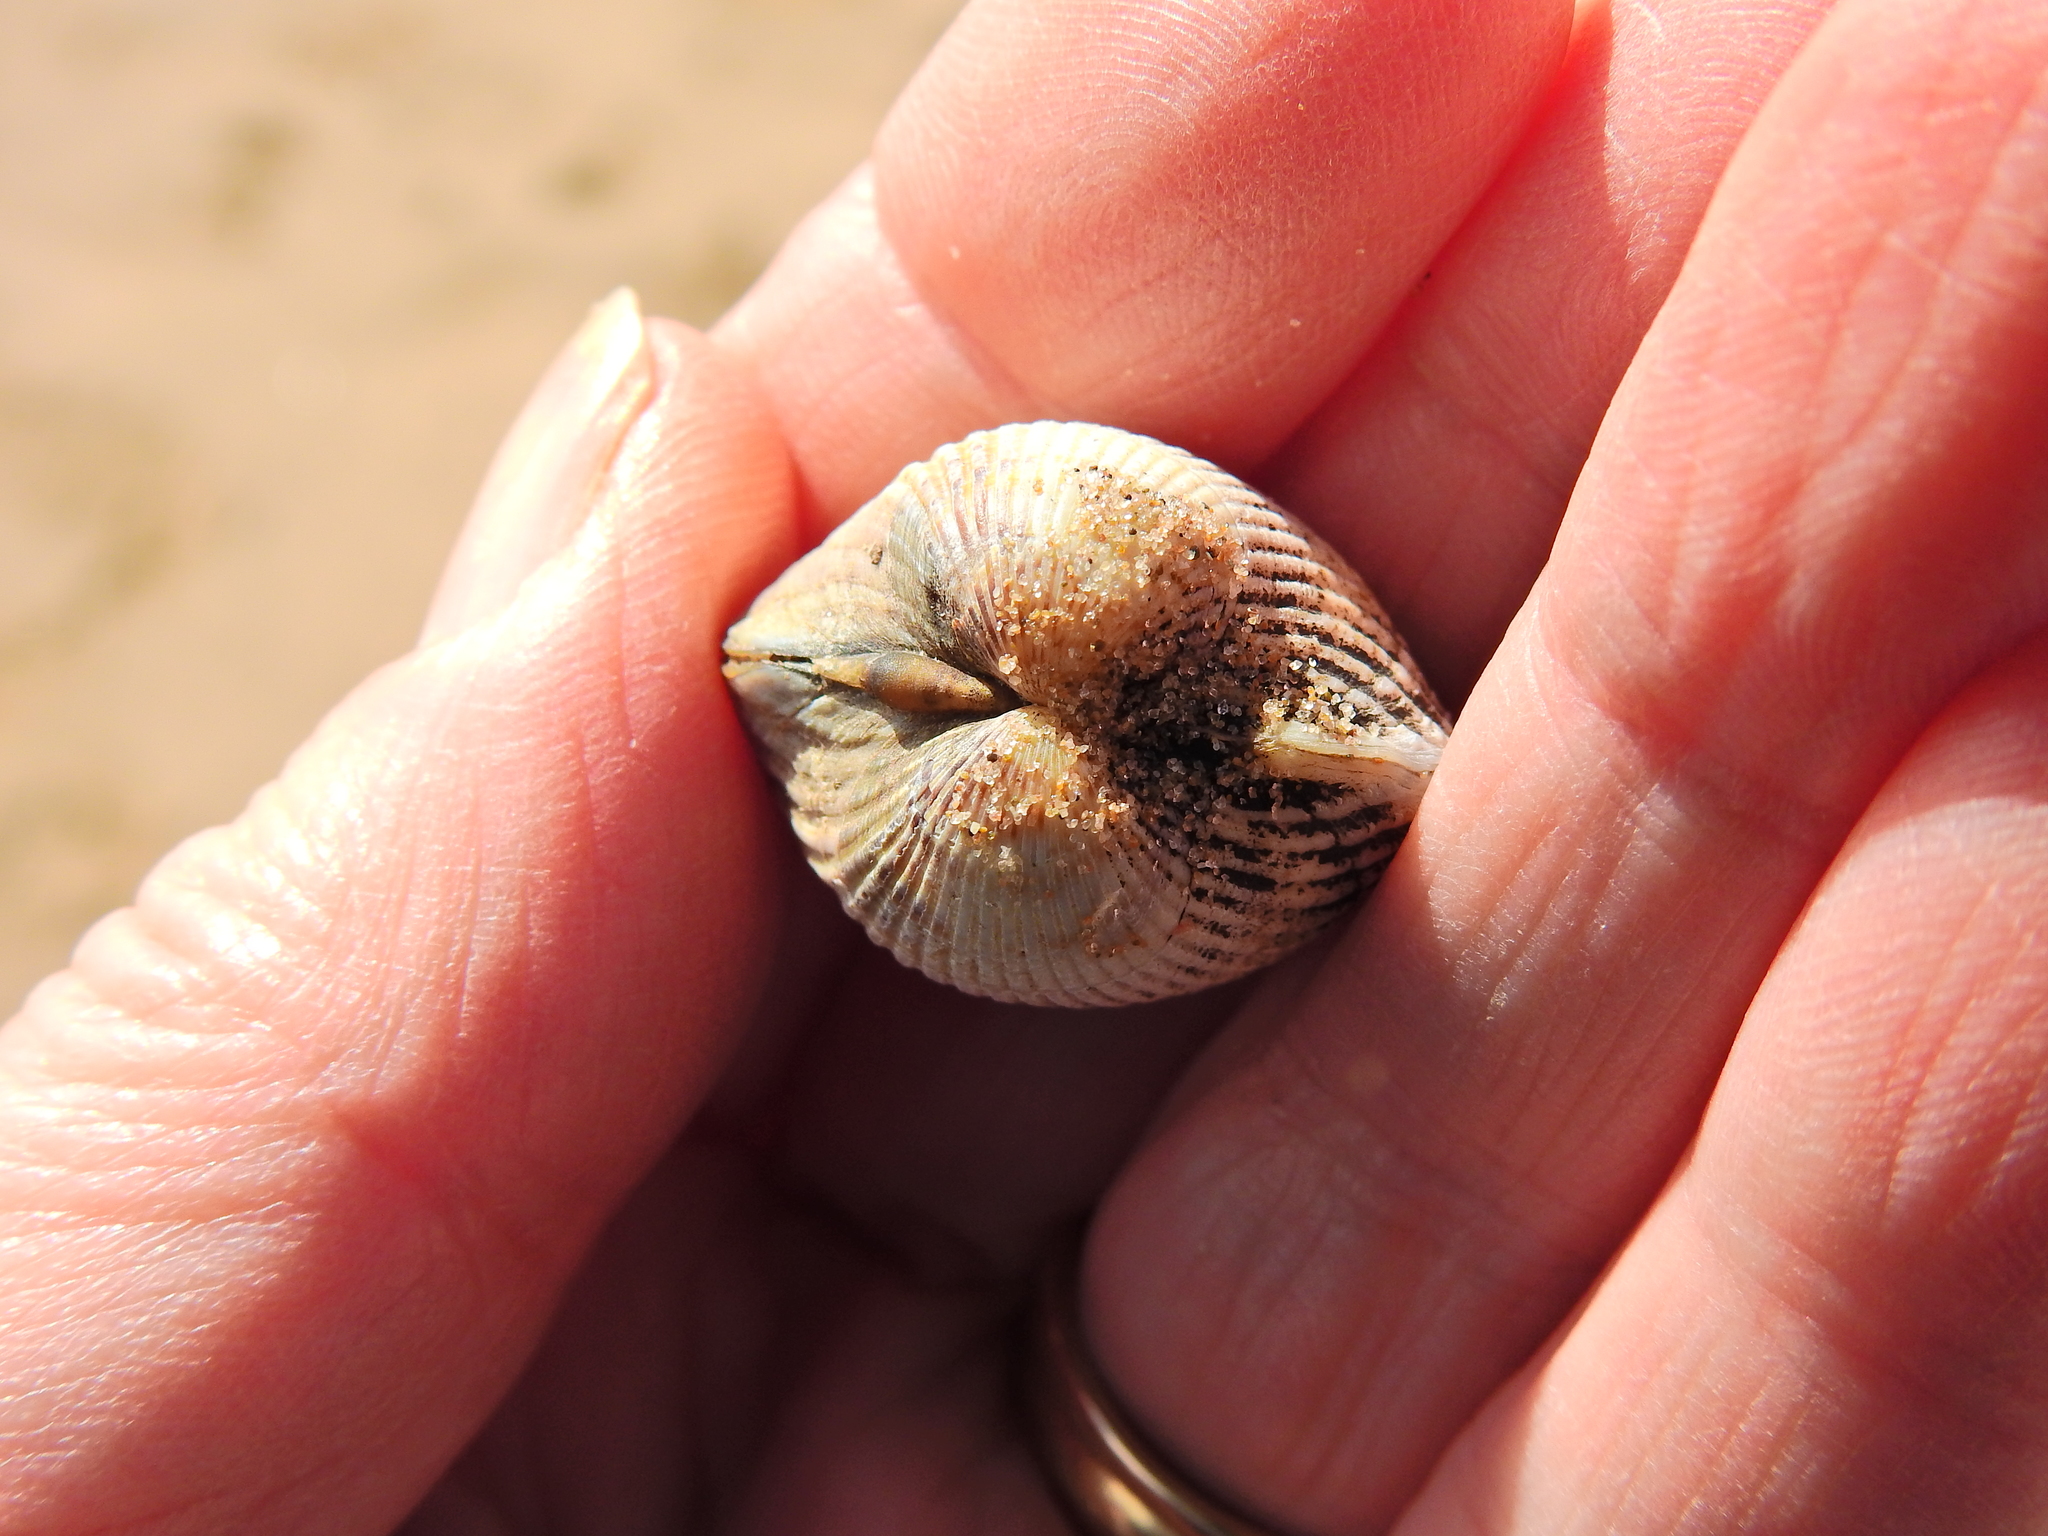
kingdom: Animalia
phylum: Mollusca
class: Bivalvia
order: Cardiida
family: Cardiidae
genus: Cerastoderma
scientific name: Cerastoderma edule
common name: Common cockle
